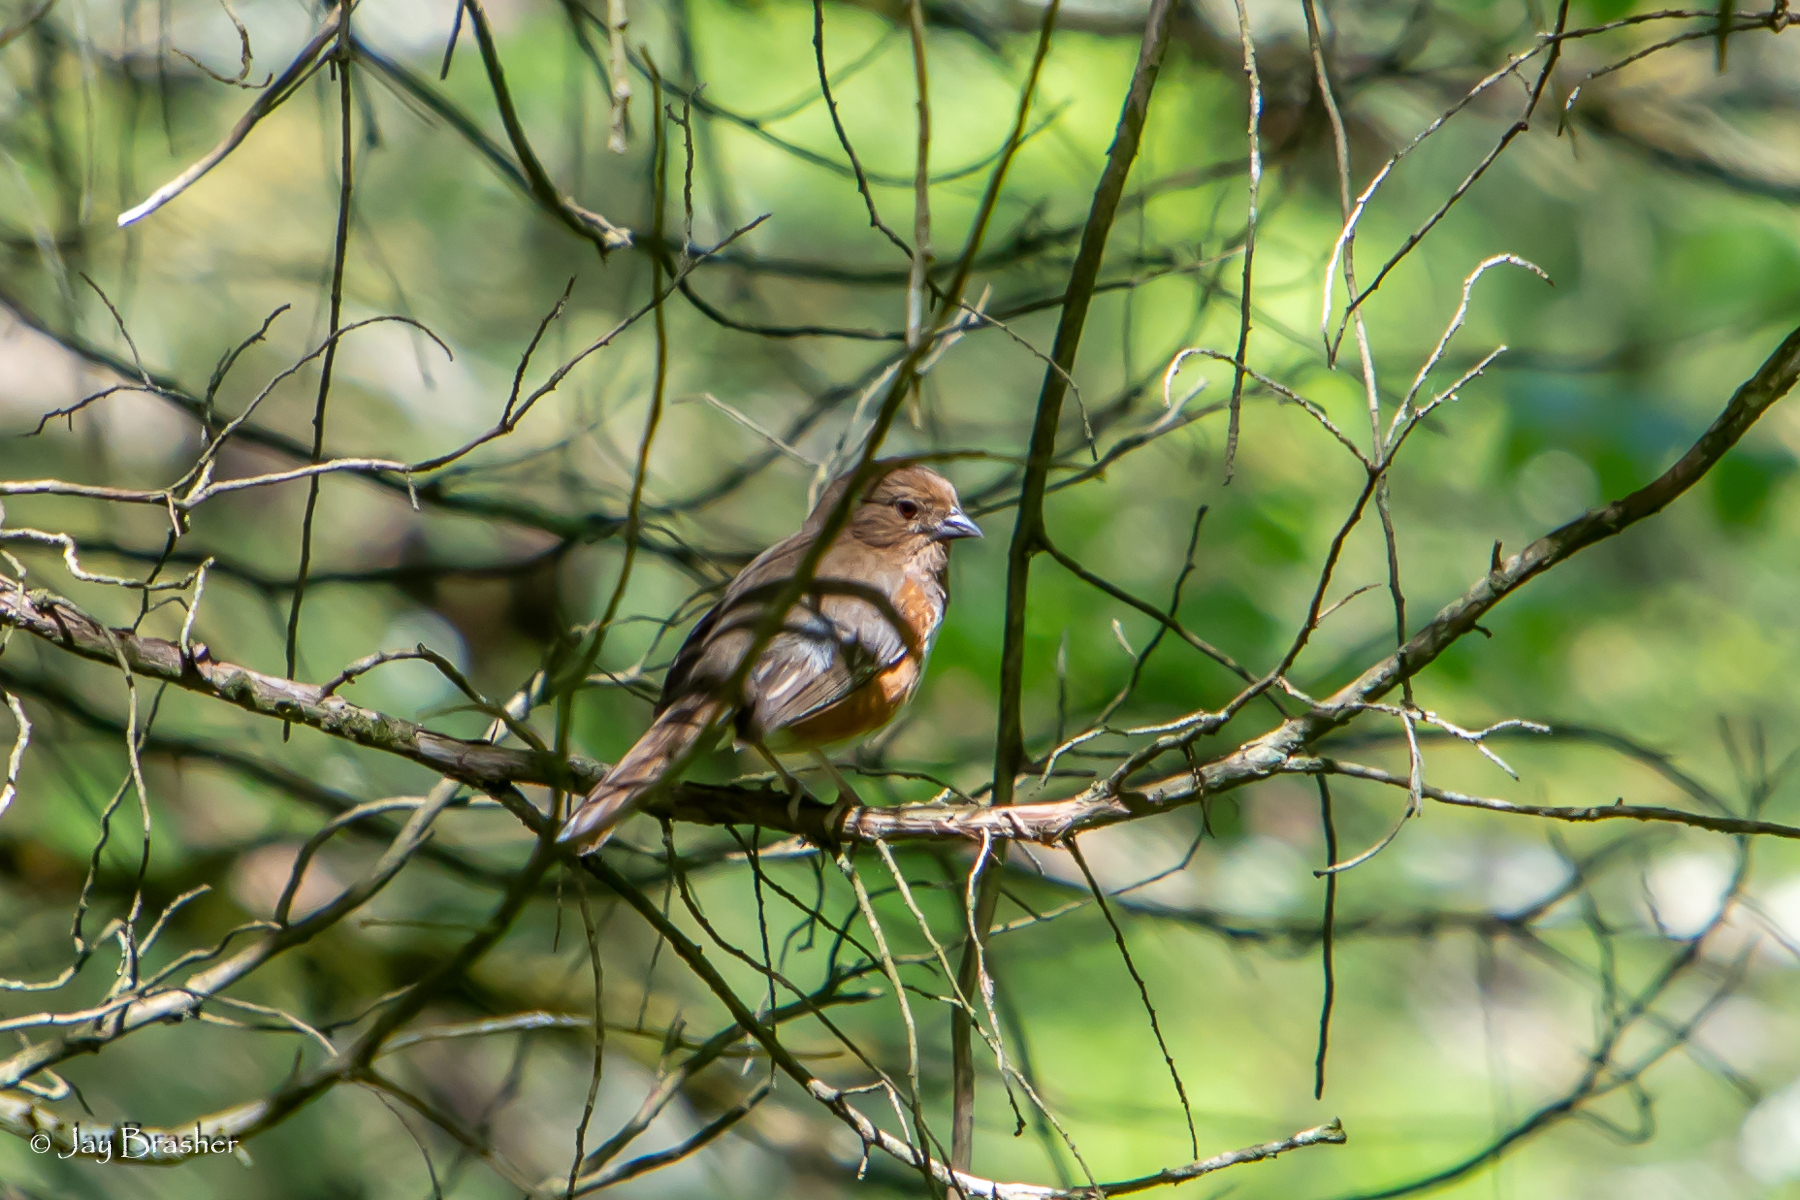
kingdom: Animalia
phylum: Chordata
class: Aves
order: Passeriformes
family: Passerellidae
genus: Pipilo
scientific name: Pipilo erythrophthalmus
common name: Eastern towhee
